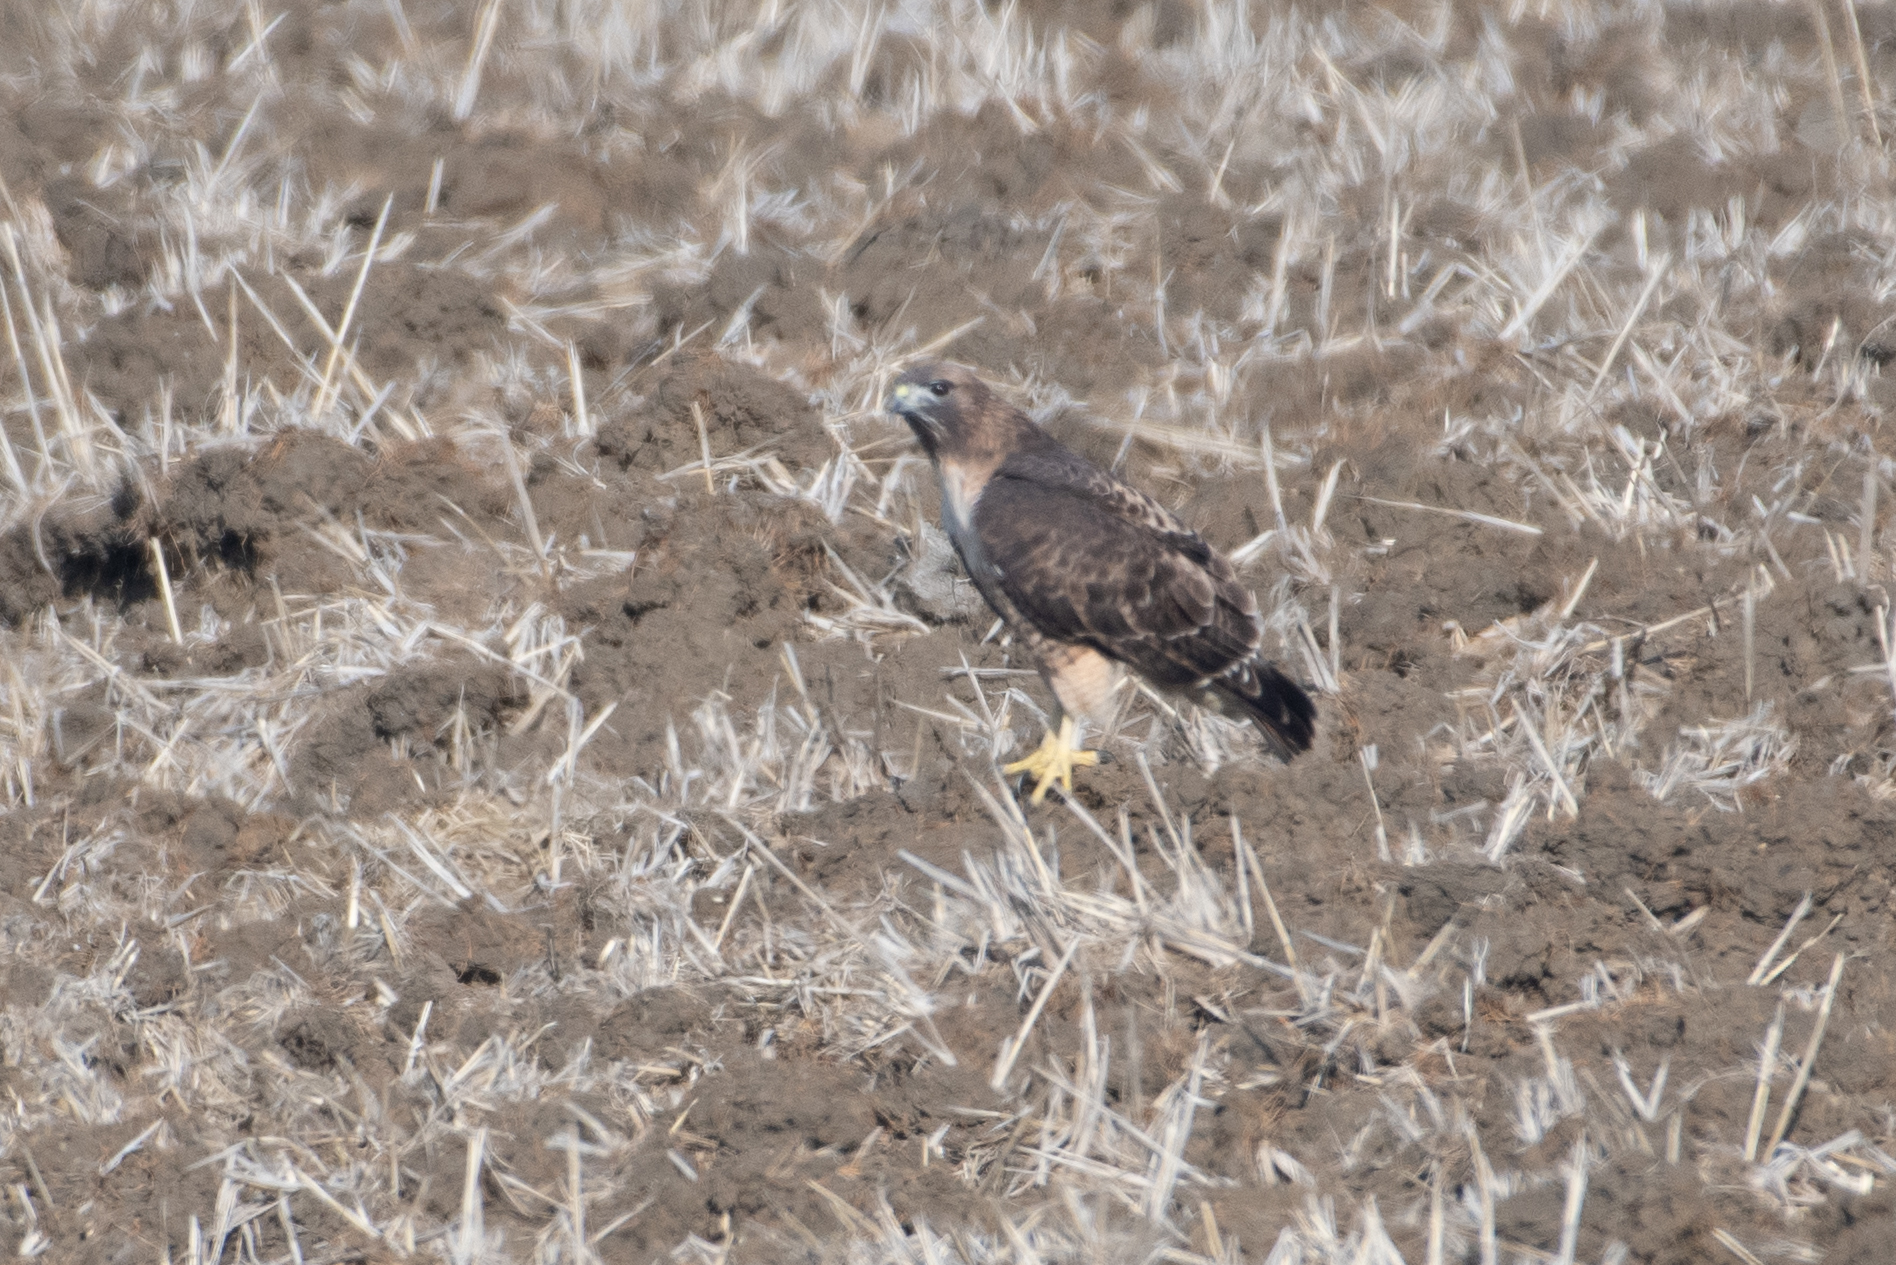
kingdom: Animalia
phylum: Chordata
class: Aves
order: Accipitriformes
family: Accipitridae
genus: Buteo
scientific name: Buteo jamaicensis
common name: Red-tailed hawk
